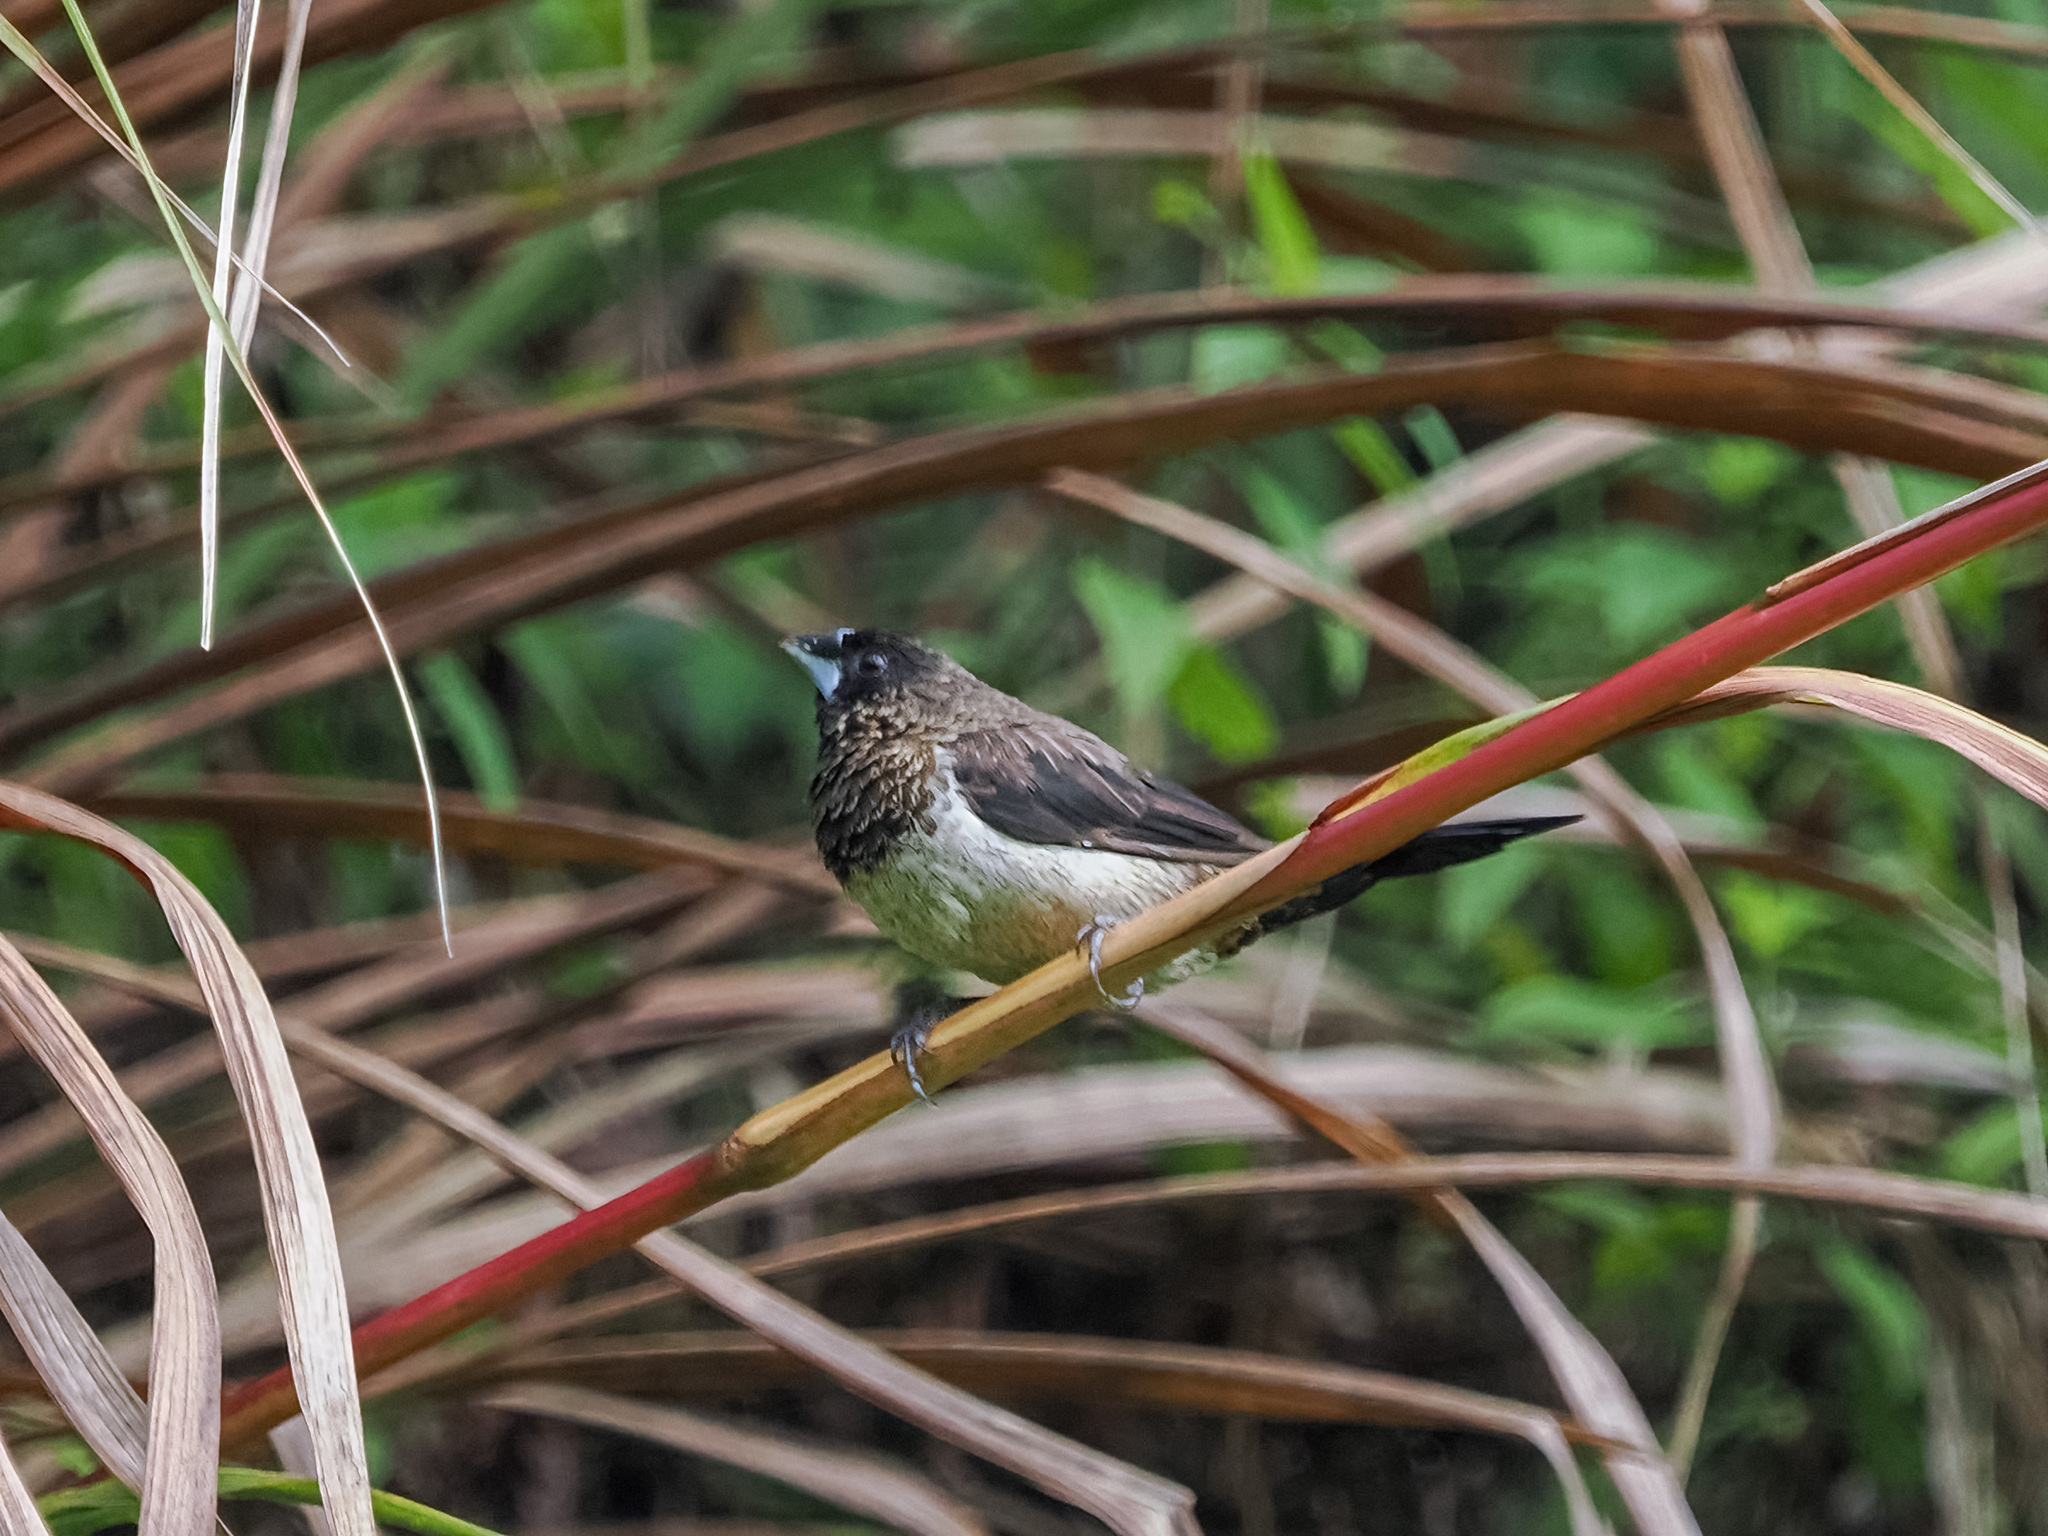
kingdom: Animalia
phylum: Chordata
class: Aves
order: Passeriformes
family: Estrildidae
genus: Lonchura
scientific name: Lonchura striata
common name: White-rumped munia
